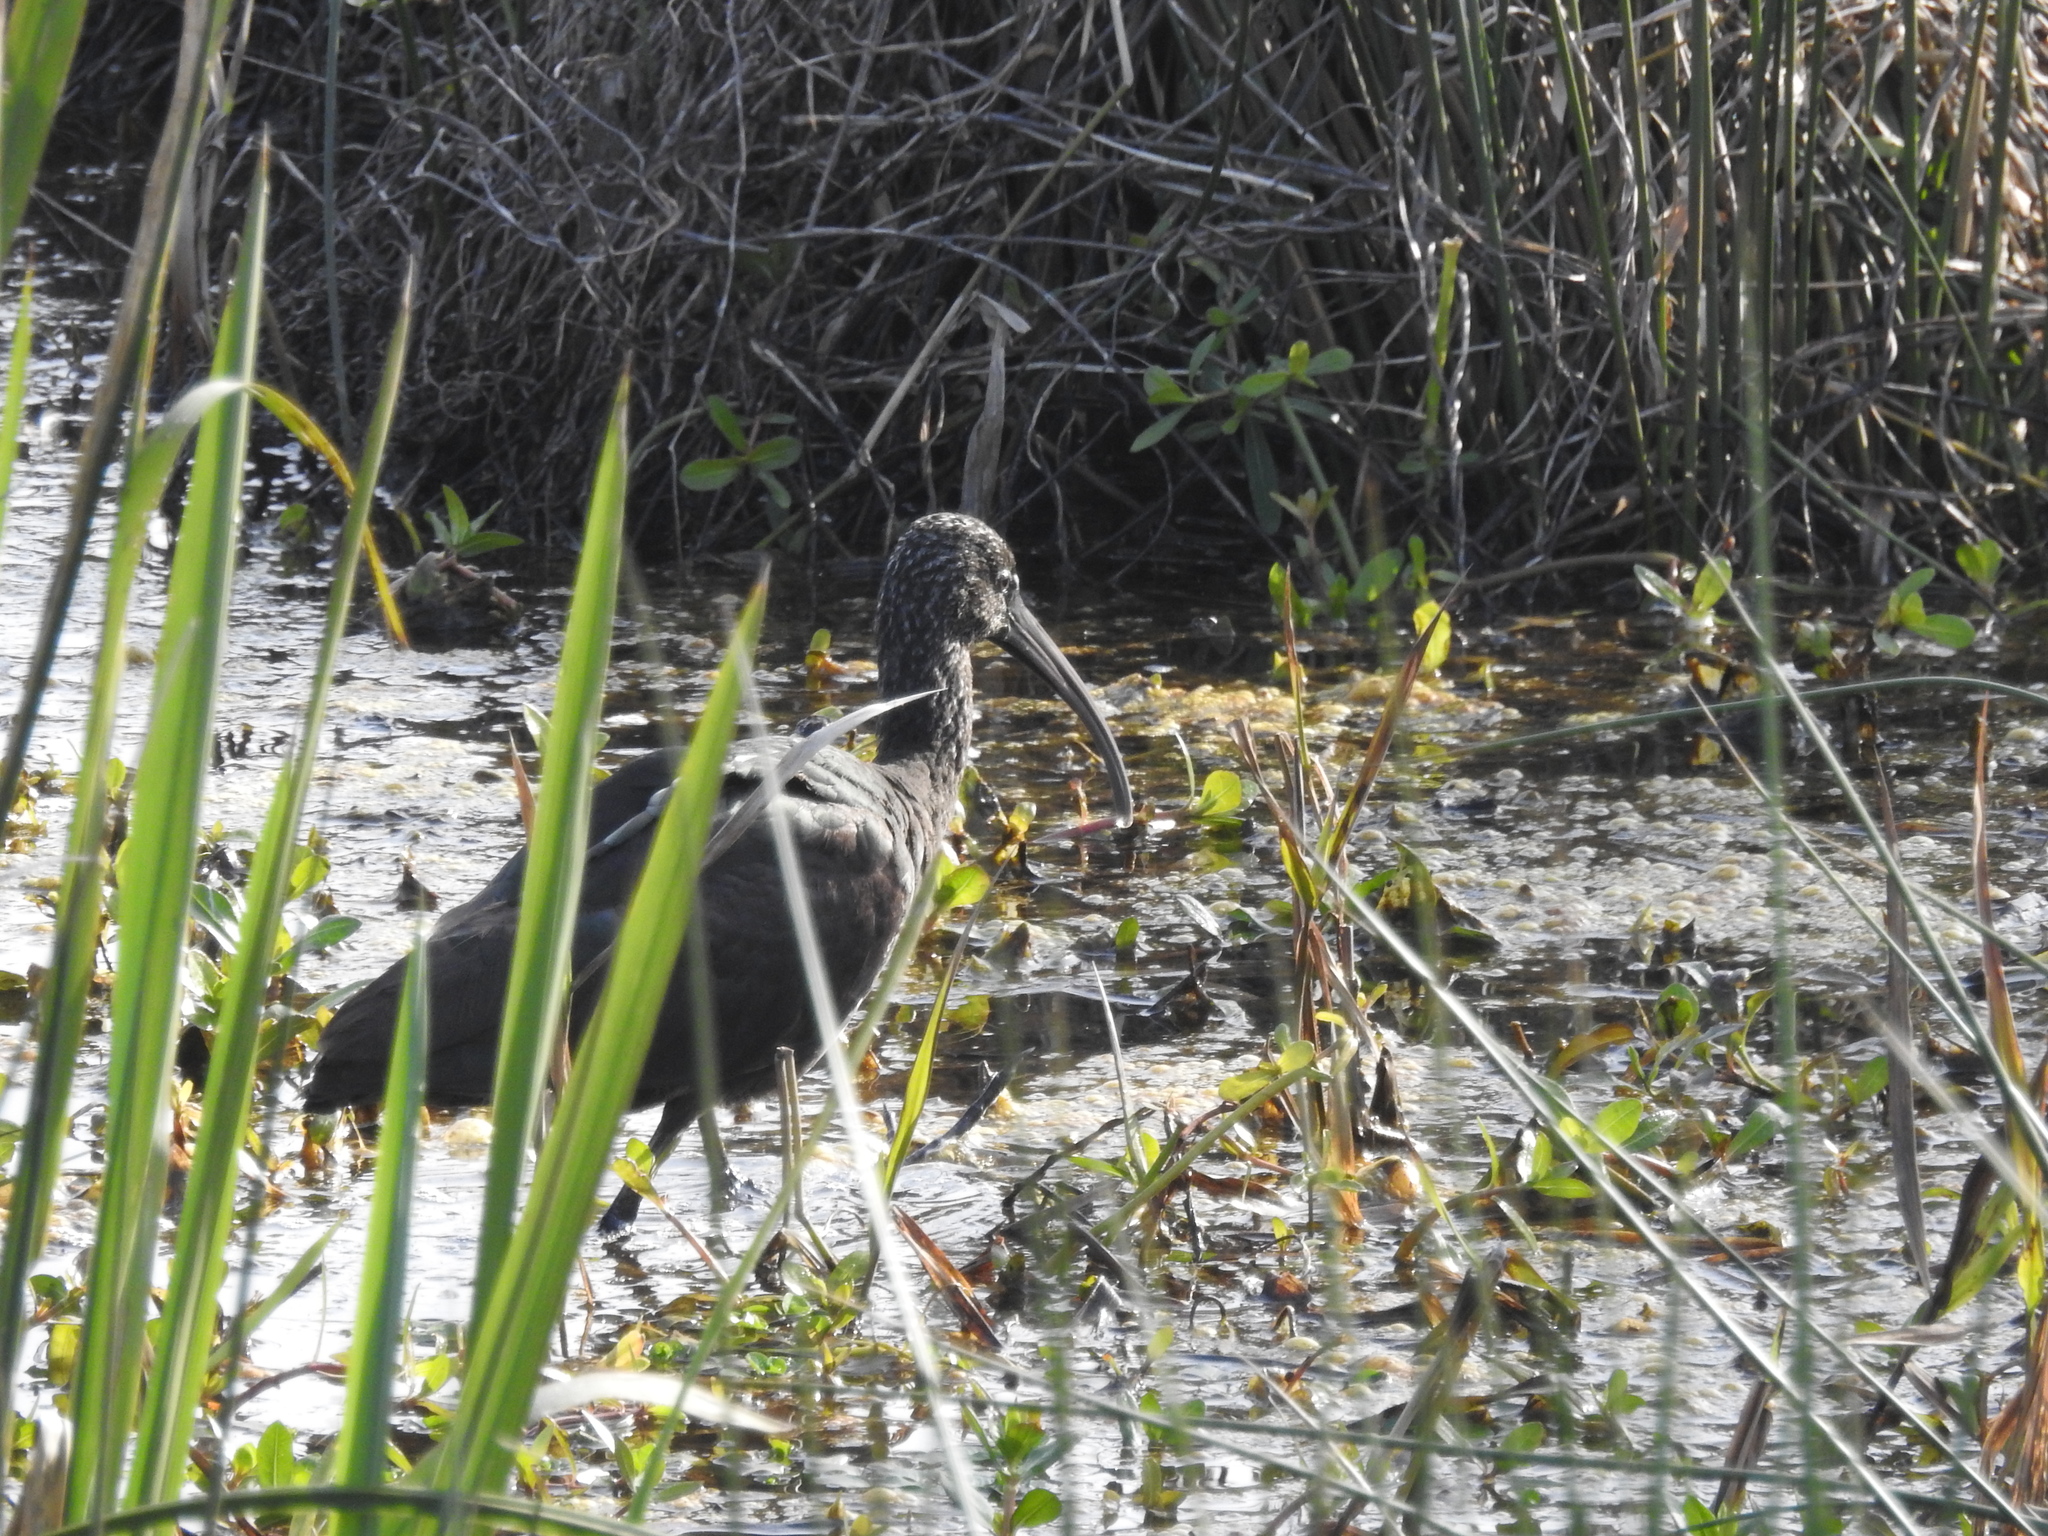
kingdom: Animalia
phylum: Chordata
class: Aves
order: Pelecaniformes
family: Threskiornithidae
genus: Plegadis
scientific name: Plegadis falcinellus
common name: Glossy ibis
